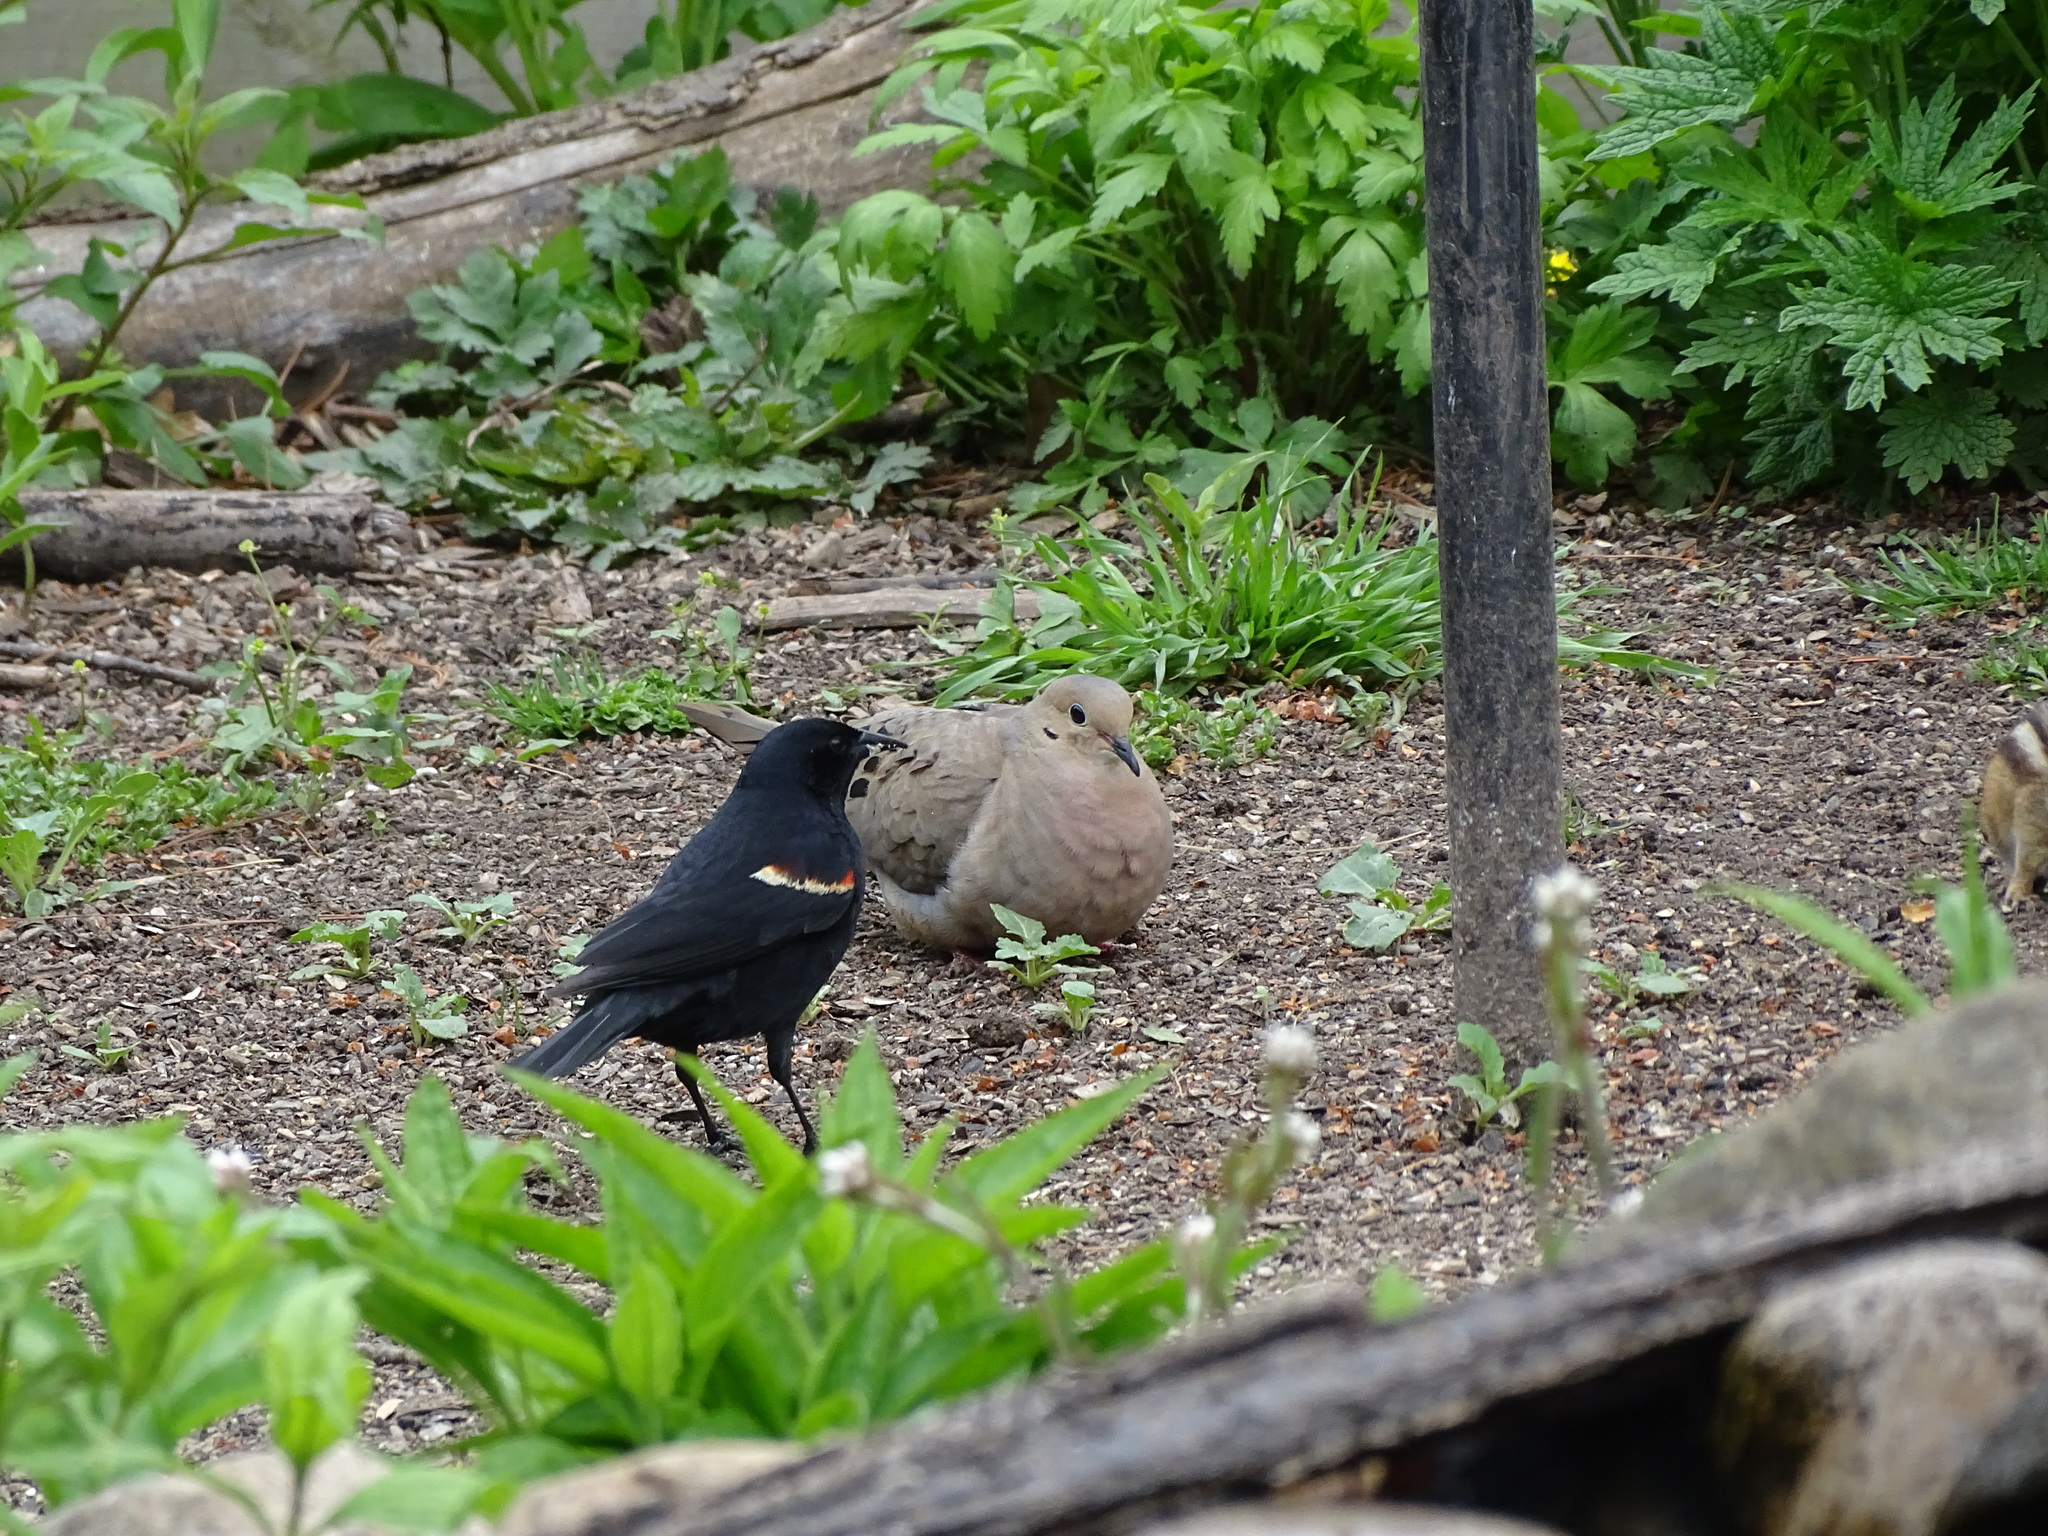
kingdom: Animalia
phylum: Chordata
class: Aves
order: Columbiformes
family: Columbidae
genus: Zenaida
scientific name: Zenaida macroura
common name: Mourning dove
